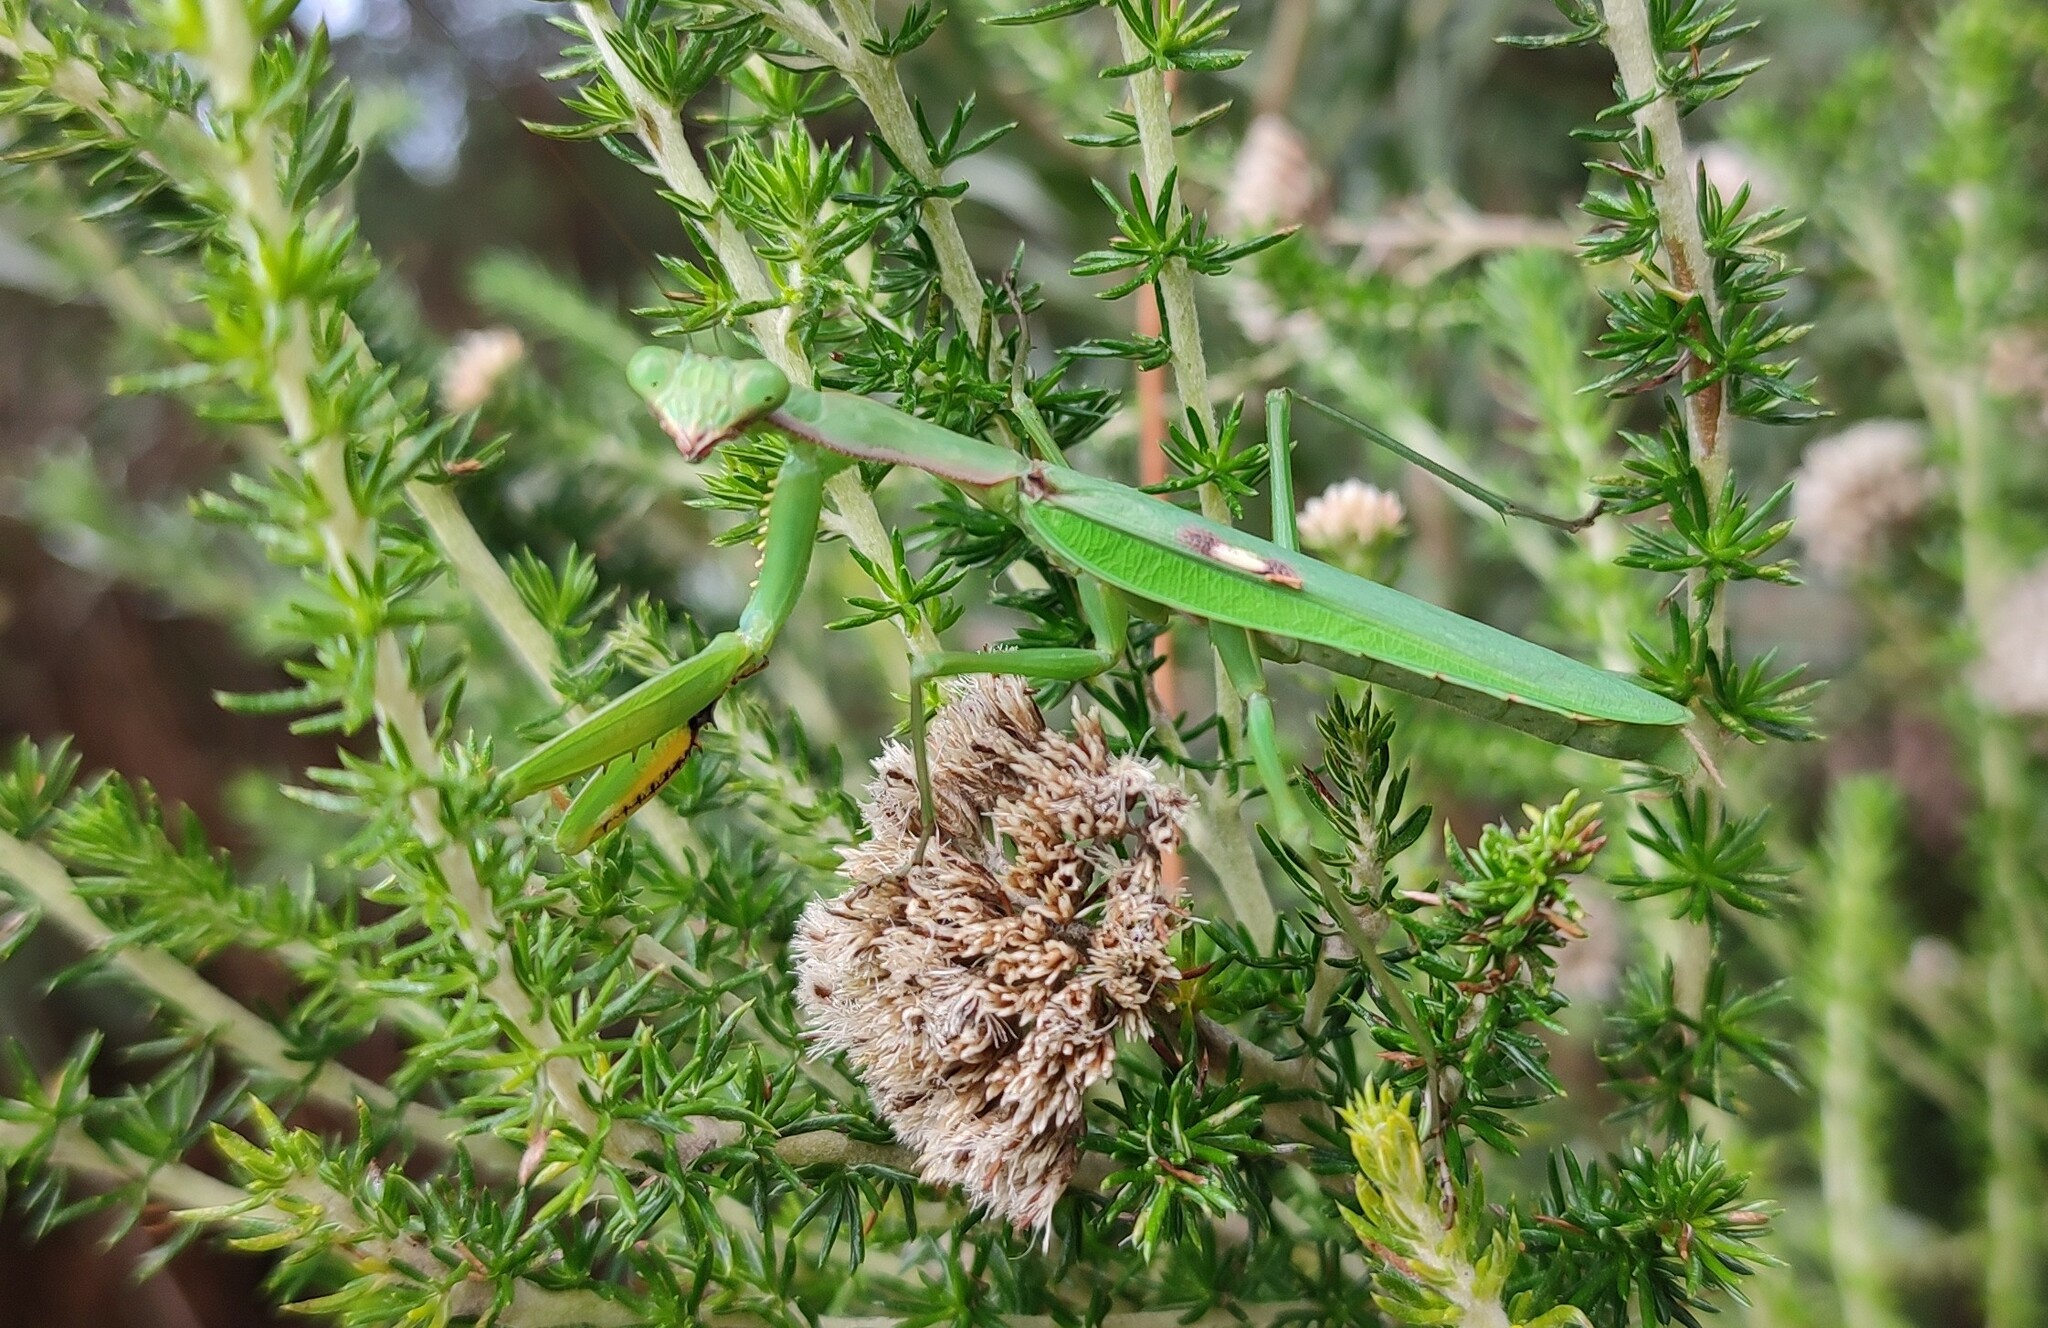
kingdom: Animalia
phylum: Arthropoda
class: Insecta
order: Mantodea
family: Mantidae
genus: Polyspilota
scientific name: Polyspilota aeruginosa
